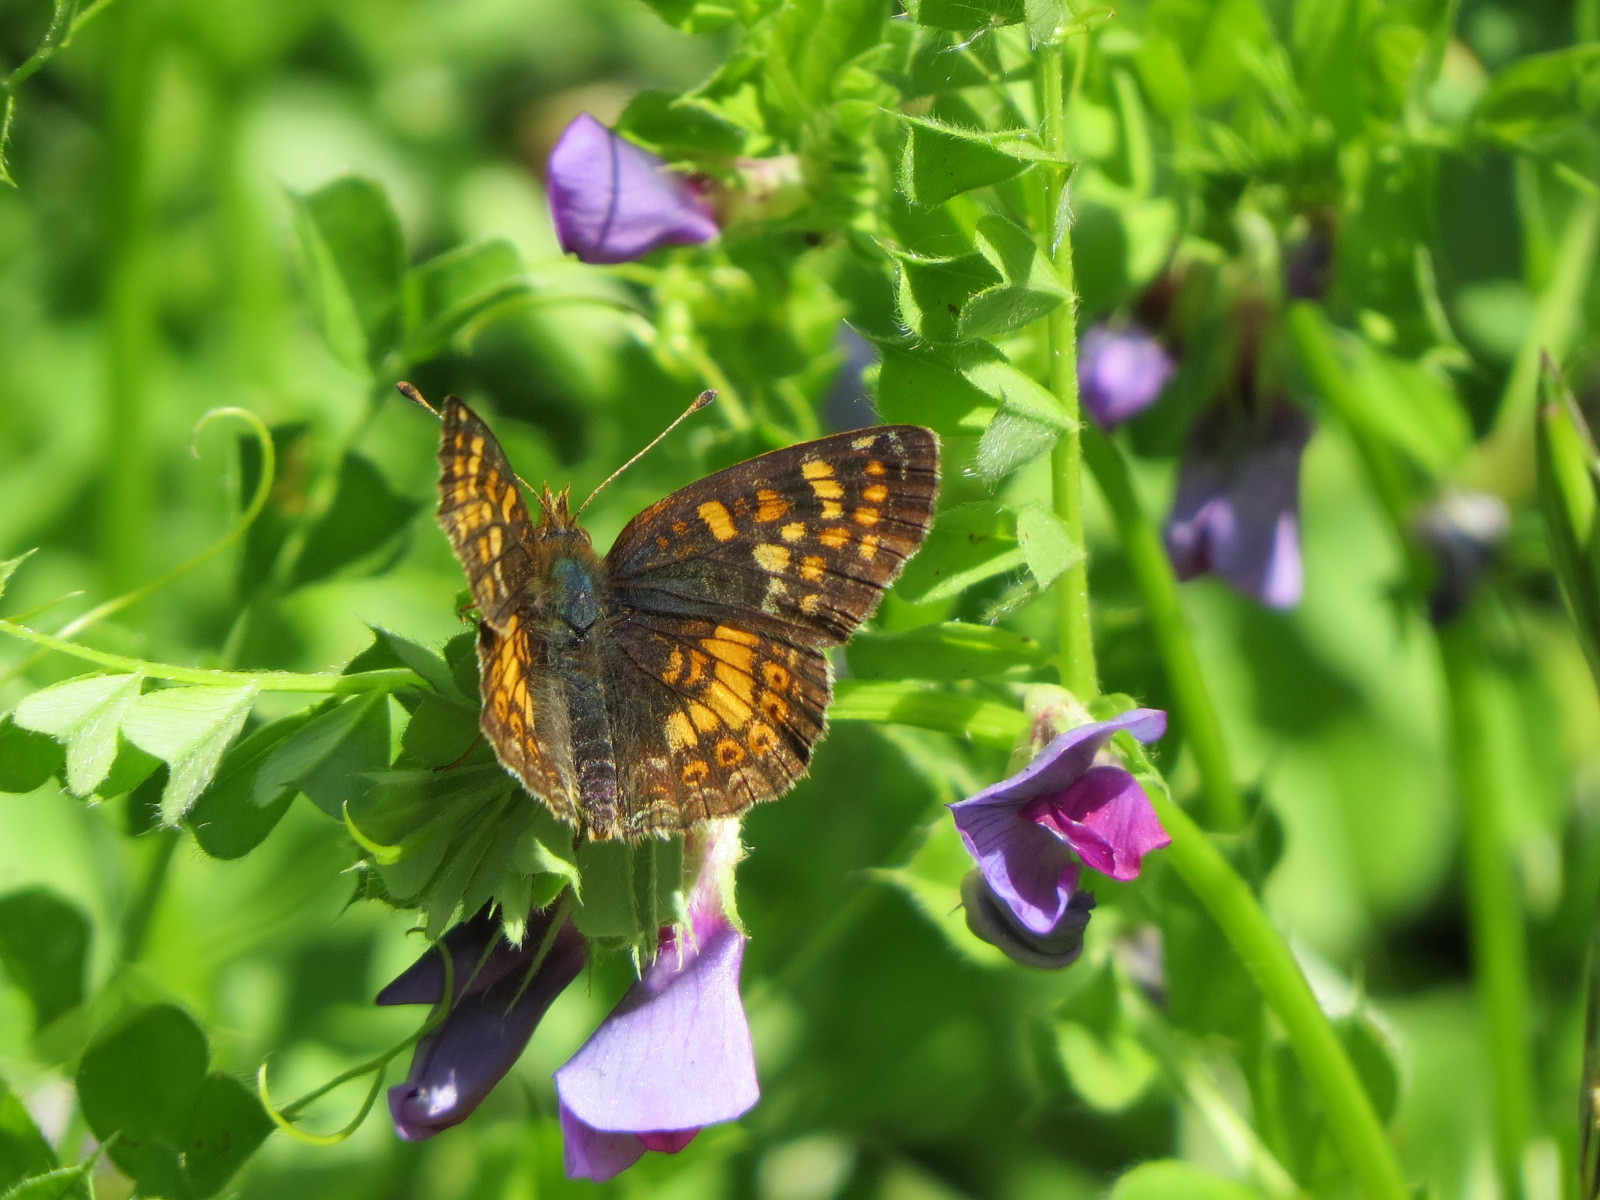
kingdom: Animalia
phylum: Arthropoda
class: Insecta
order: Lepidoptera
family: Nymphalidae
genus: Phyciodes
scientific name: Phyciodes tharos
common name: Pearl crescent
